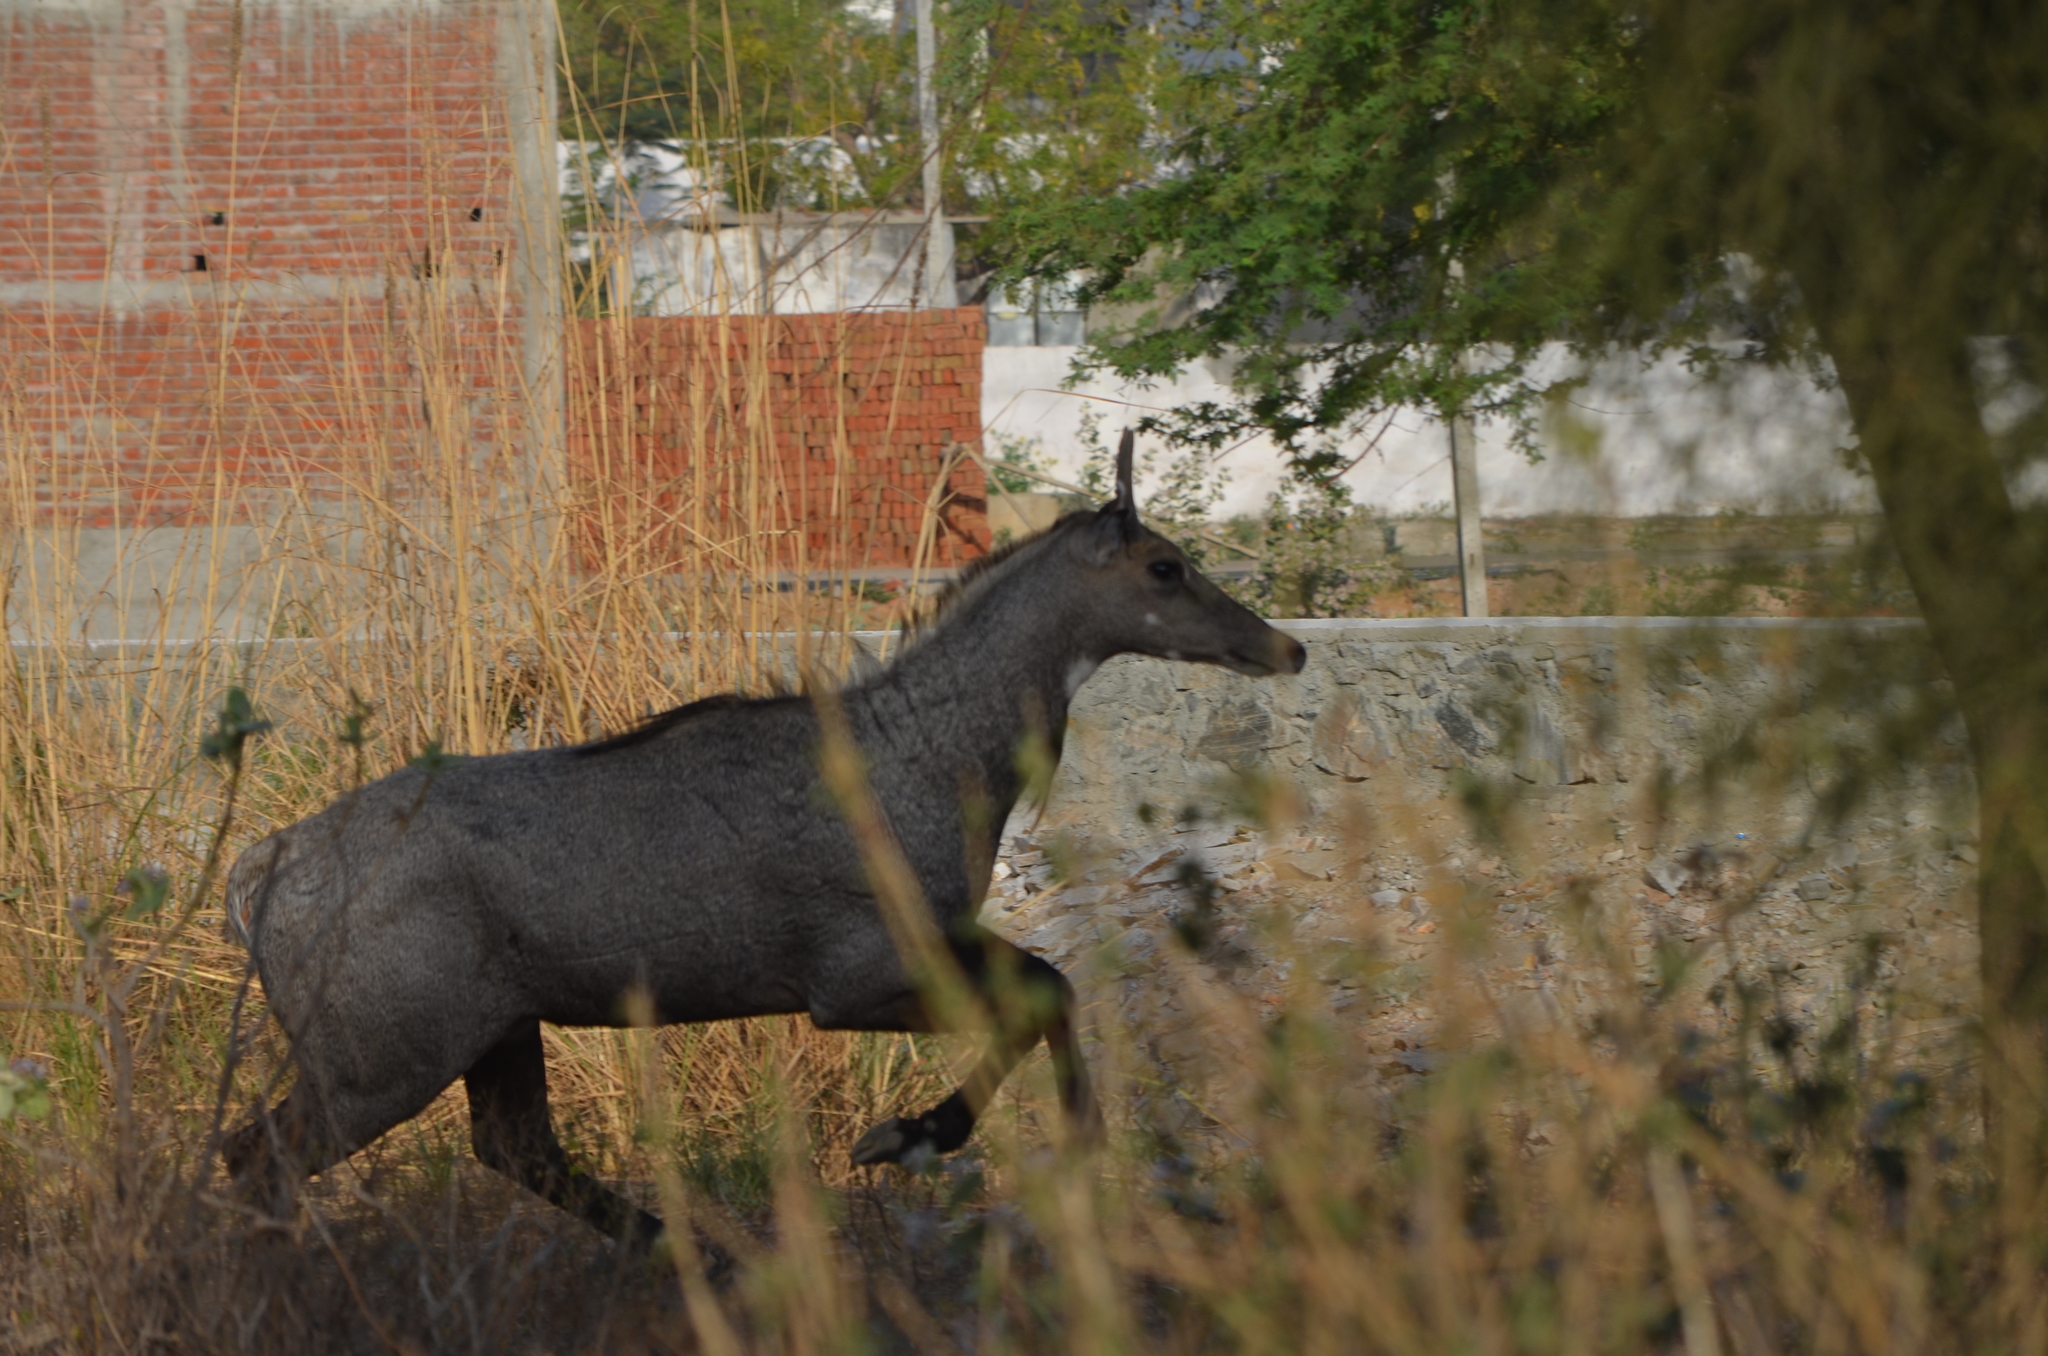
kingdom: Animalia
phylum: Chordata
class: Mammalia
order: Artiodactyla
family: Bovidae
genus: Boselaphus
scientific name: Boselaphus tragocamelus
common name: Nilgai
